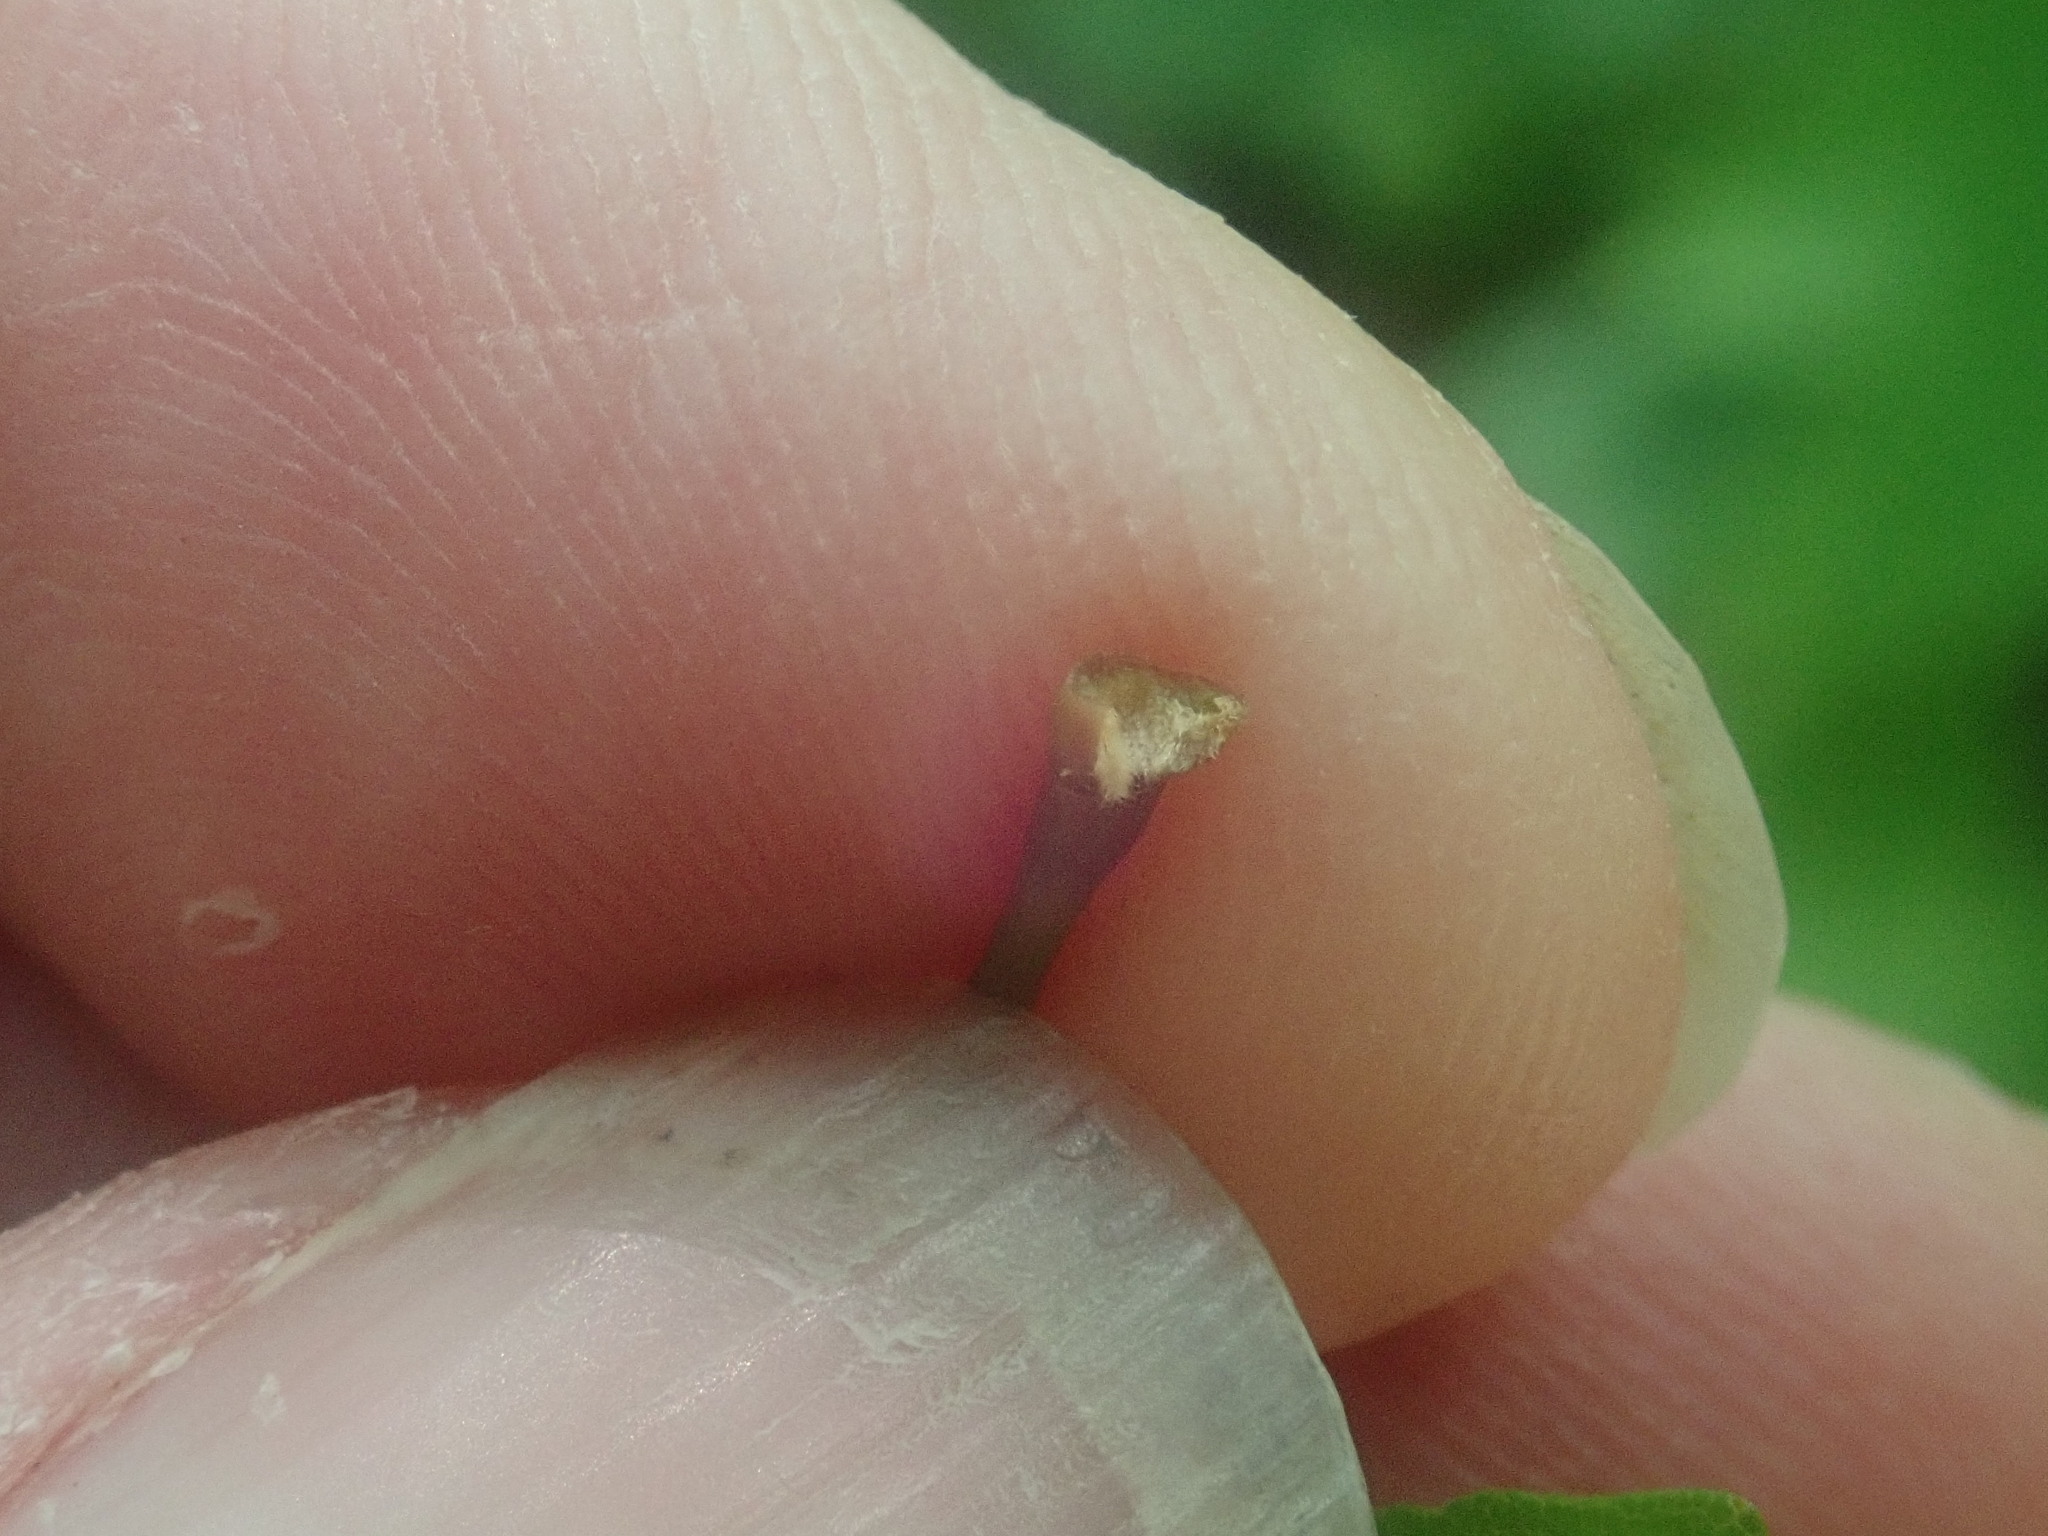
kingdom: Plantae
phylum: Tracheophyta
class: Magnoliopsida
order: Sapindales
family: Sapindaceae
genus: Acer
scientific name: Acer saccharum
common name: Sugar maple
